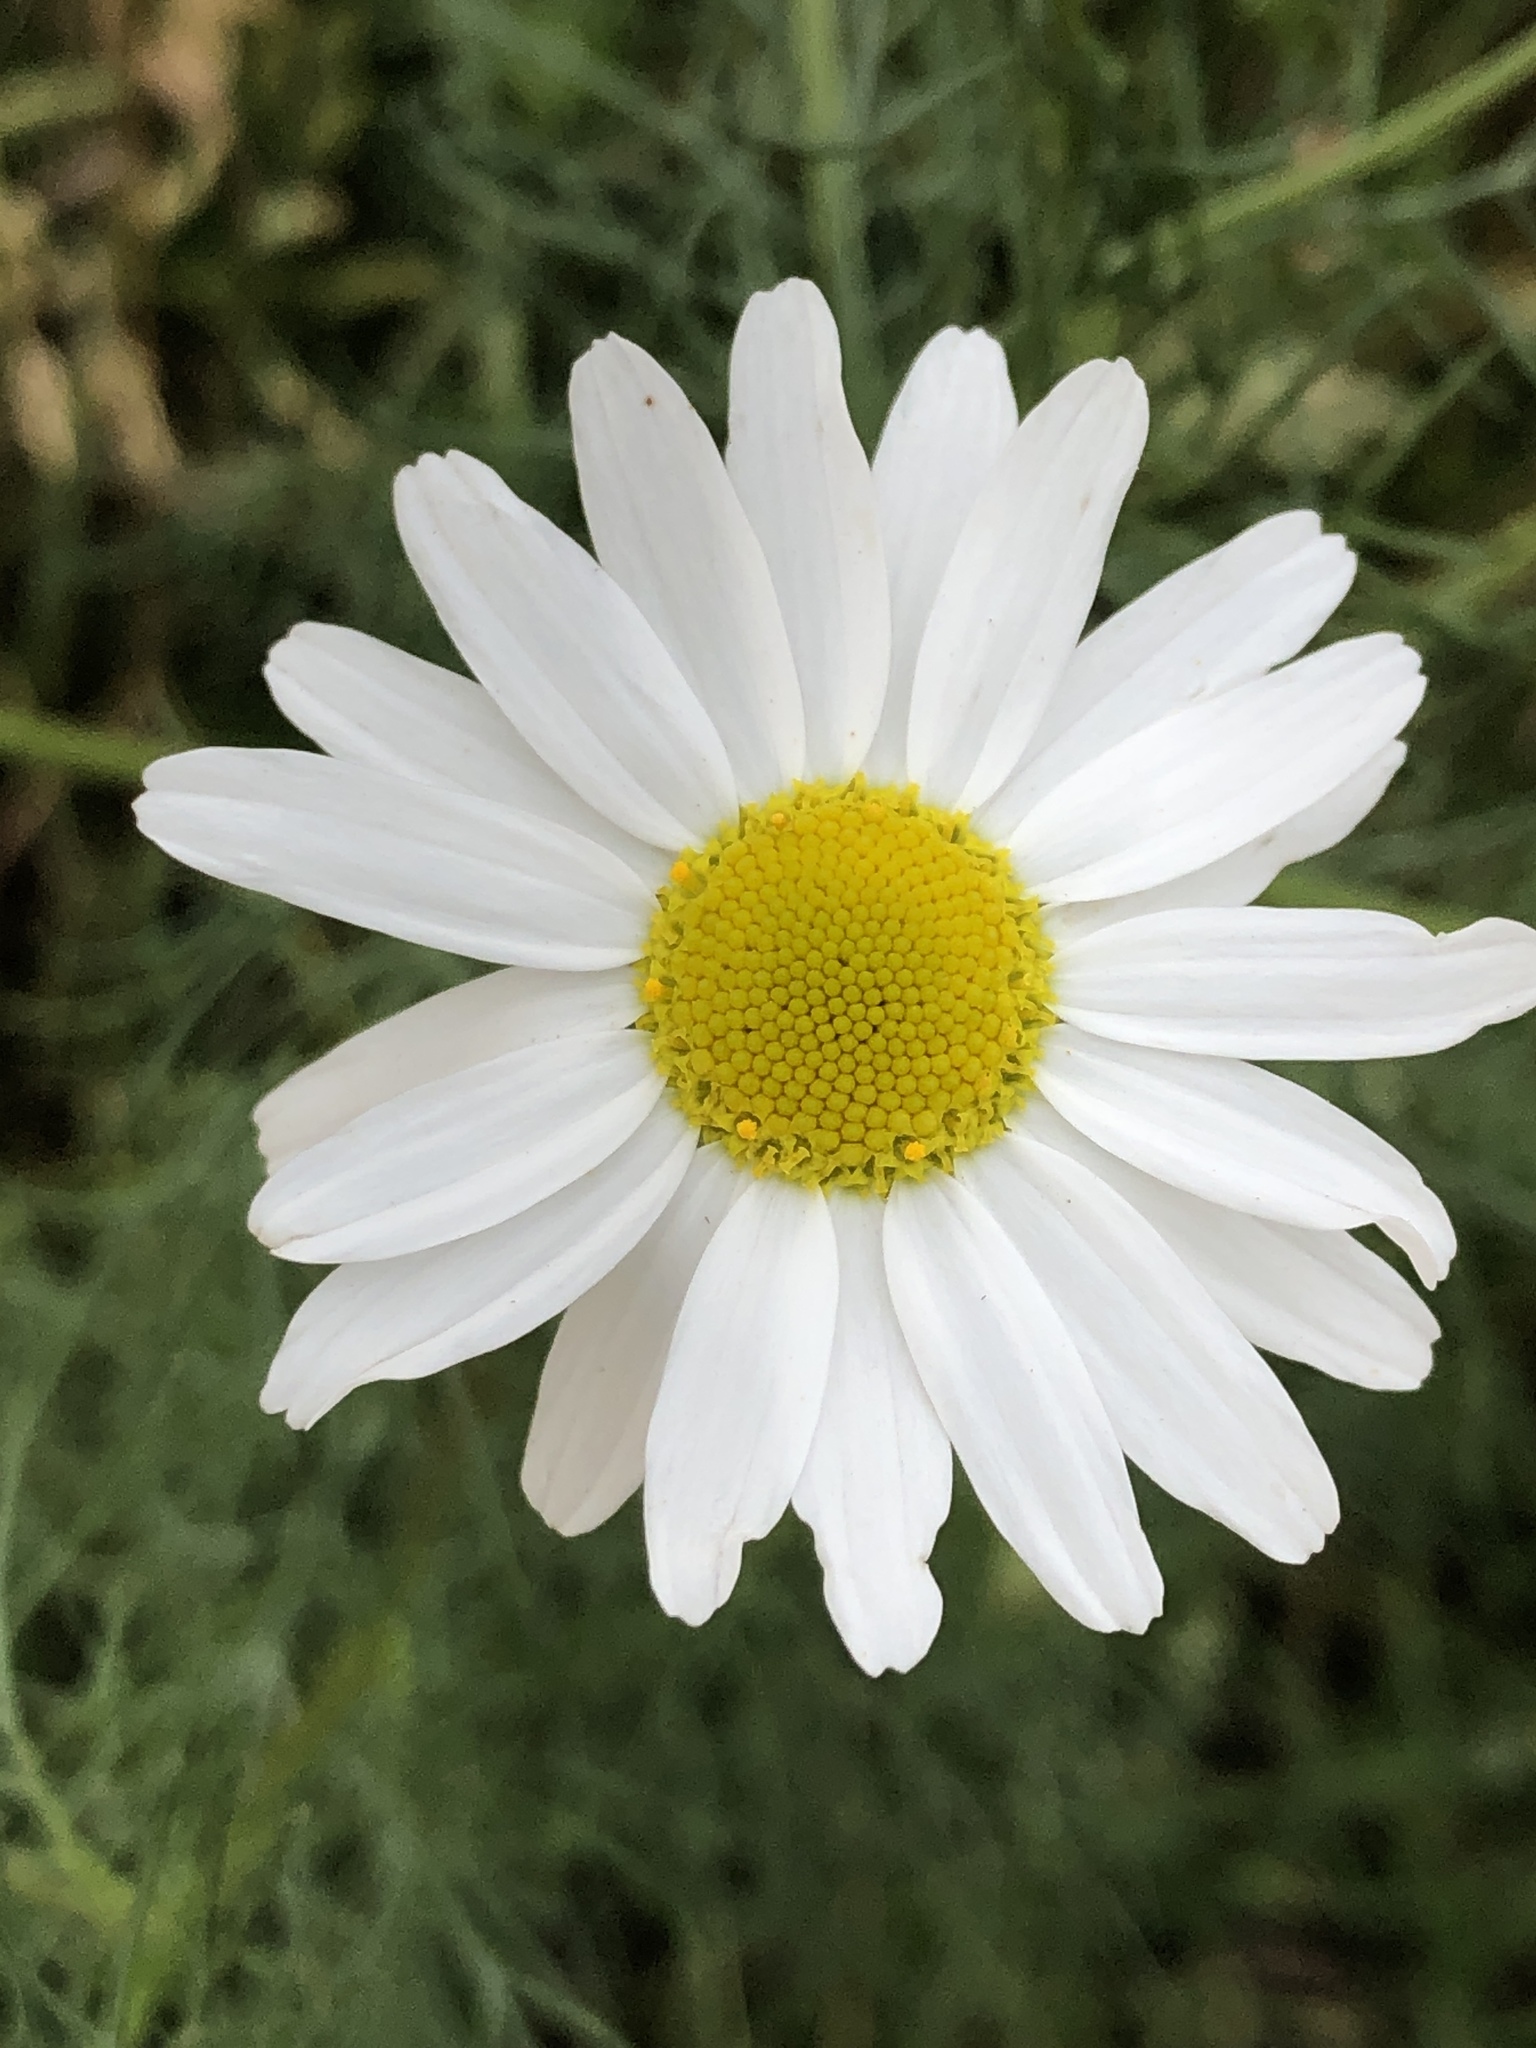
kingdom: Plantae
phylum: Tracheophyta
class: Magnoliopsida
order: Asterales
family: Asteraceae
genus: Tripleurospermum
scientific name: Tripleurospermum inodorum
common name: Scentless mayweed
